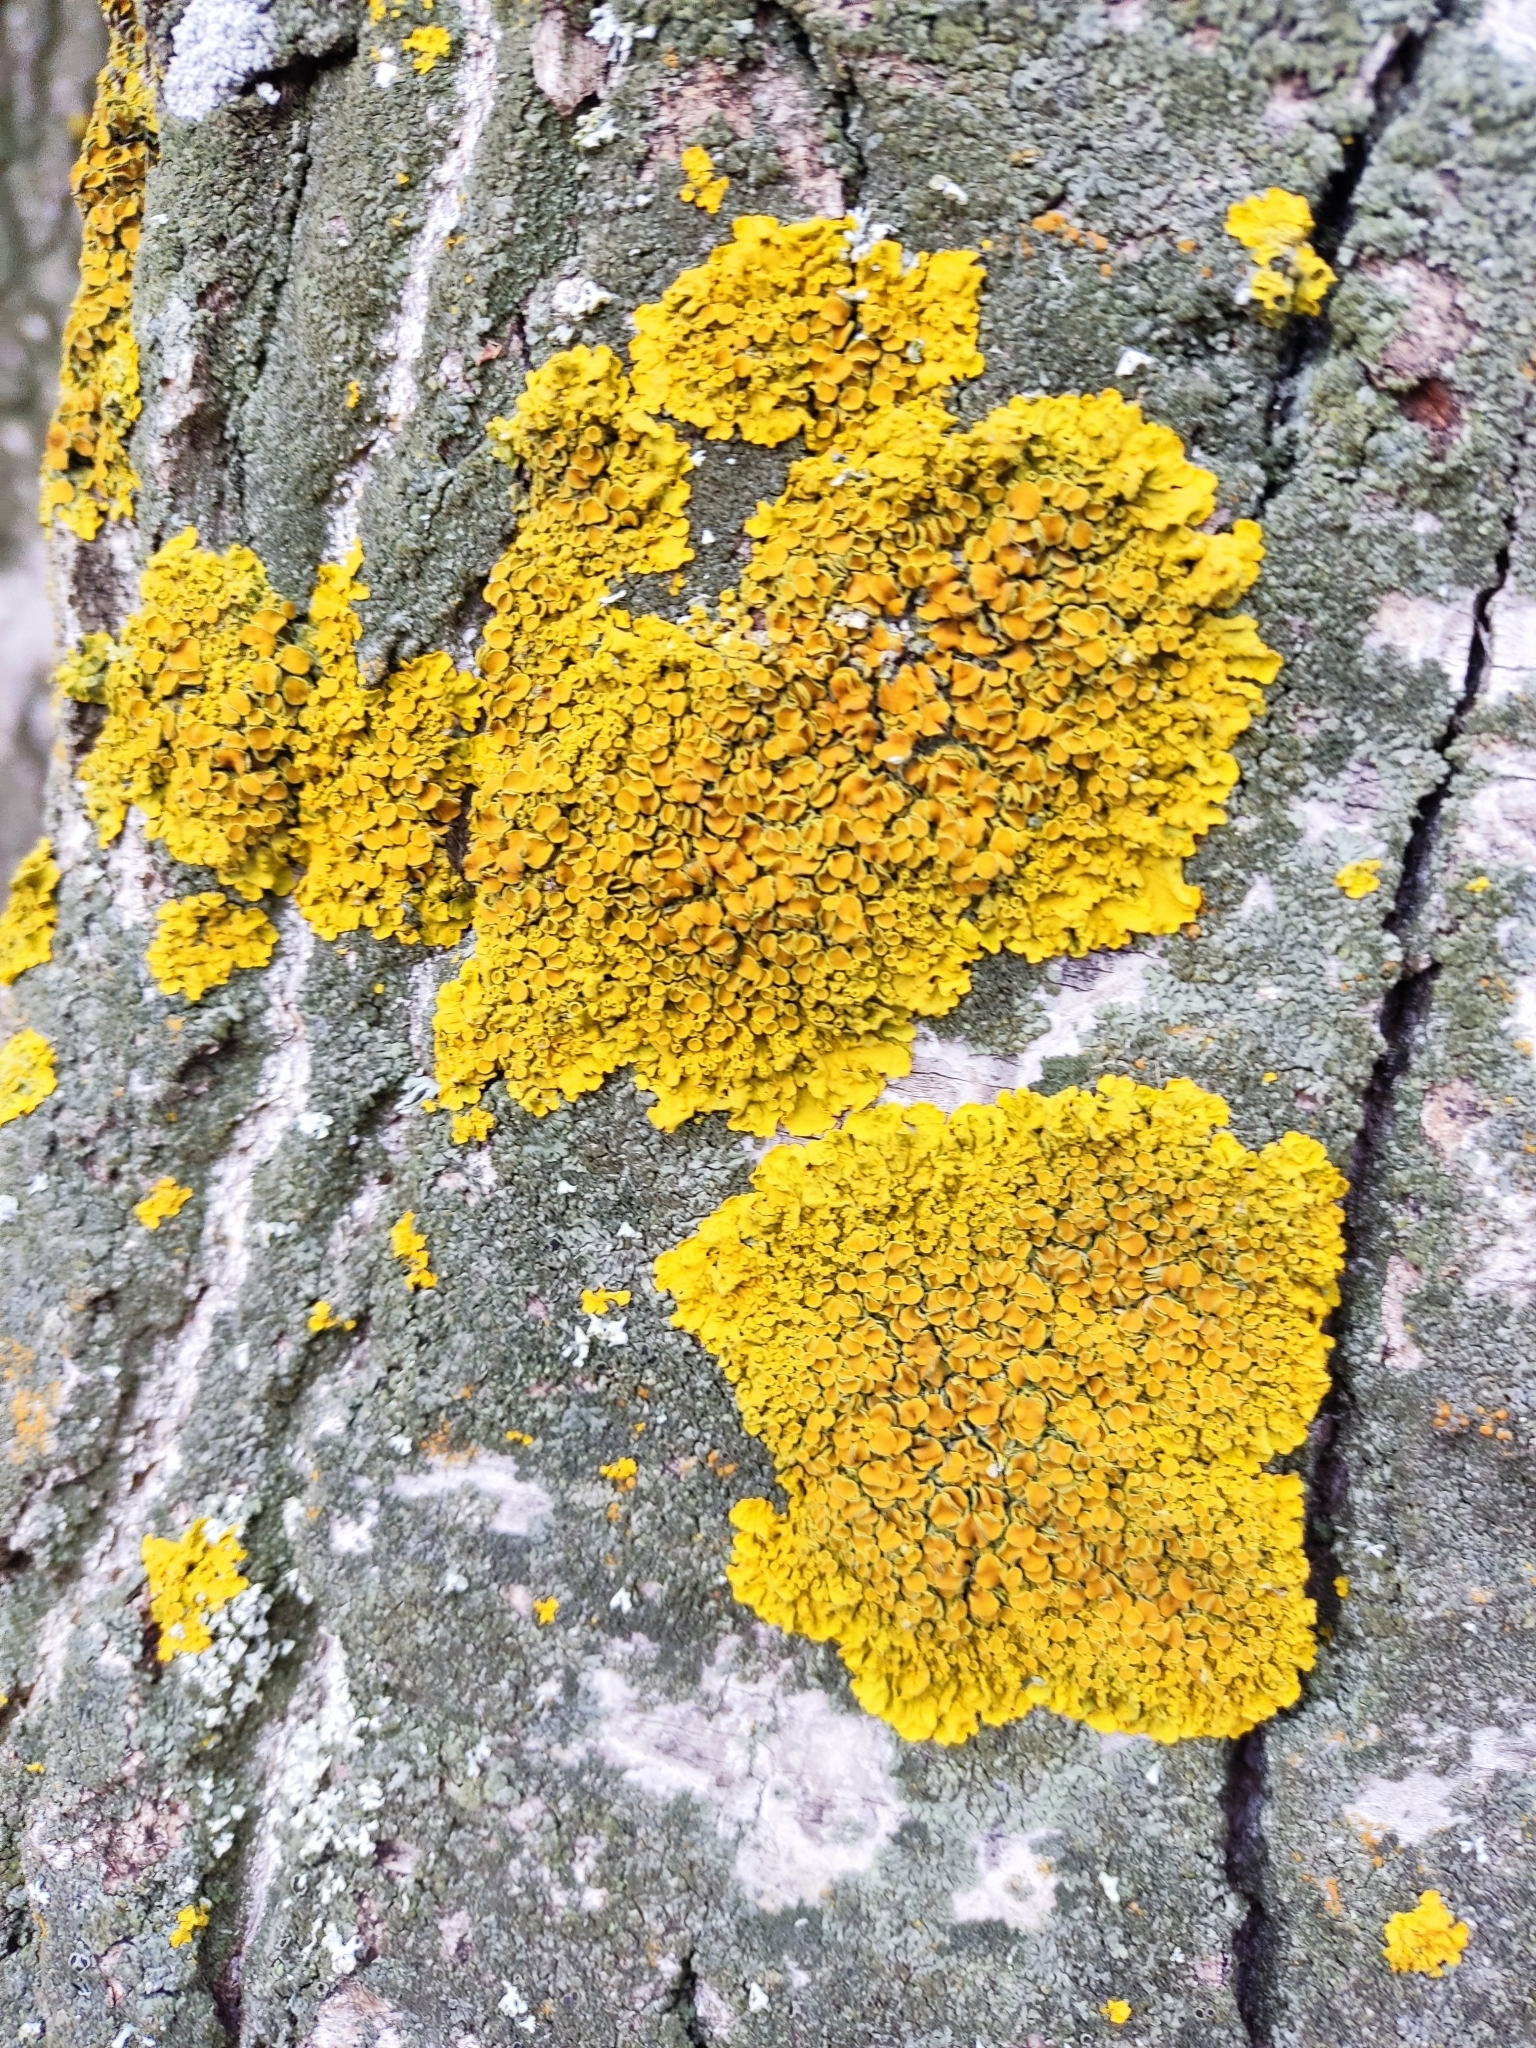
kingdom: Fungi
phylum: Ascomycota
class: Lecanoromycetes
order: Teloschistales
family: Teloschistaceae
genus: Xanthoria
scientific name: Xanthoria parietina
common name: Common orange lichen
